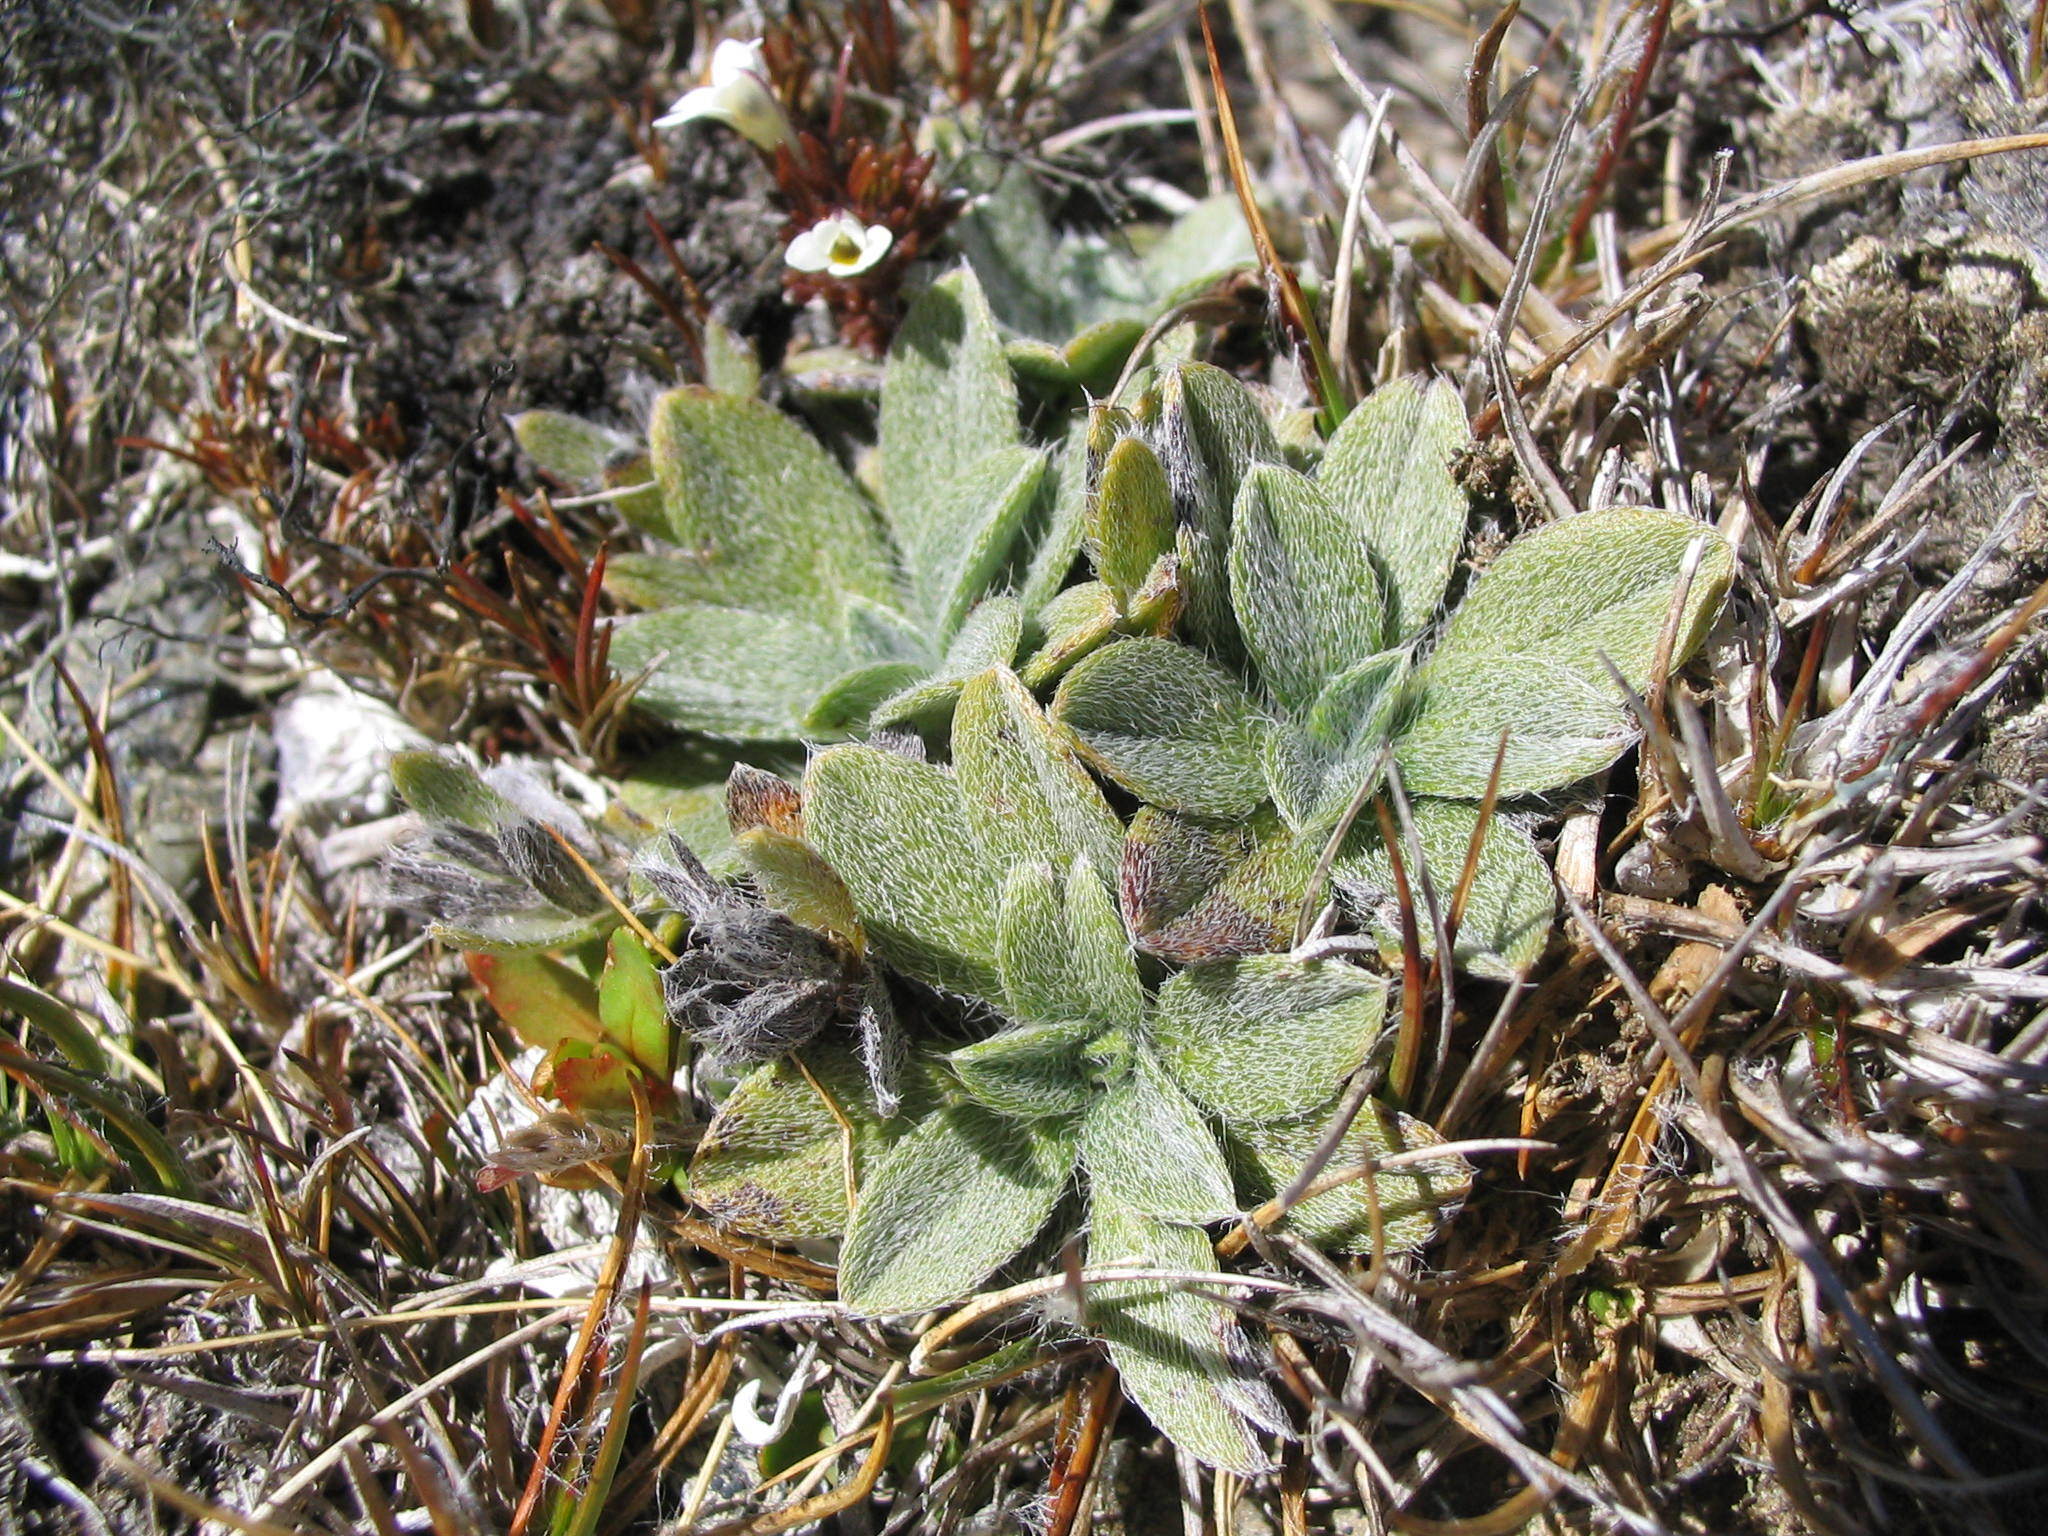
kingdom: Plantae
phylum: Tracheophyta
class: Magnoliopsida
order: Boraginales
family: Boraginaceae
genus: Myosotis
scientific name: Myosotis venticola
